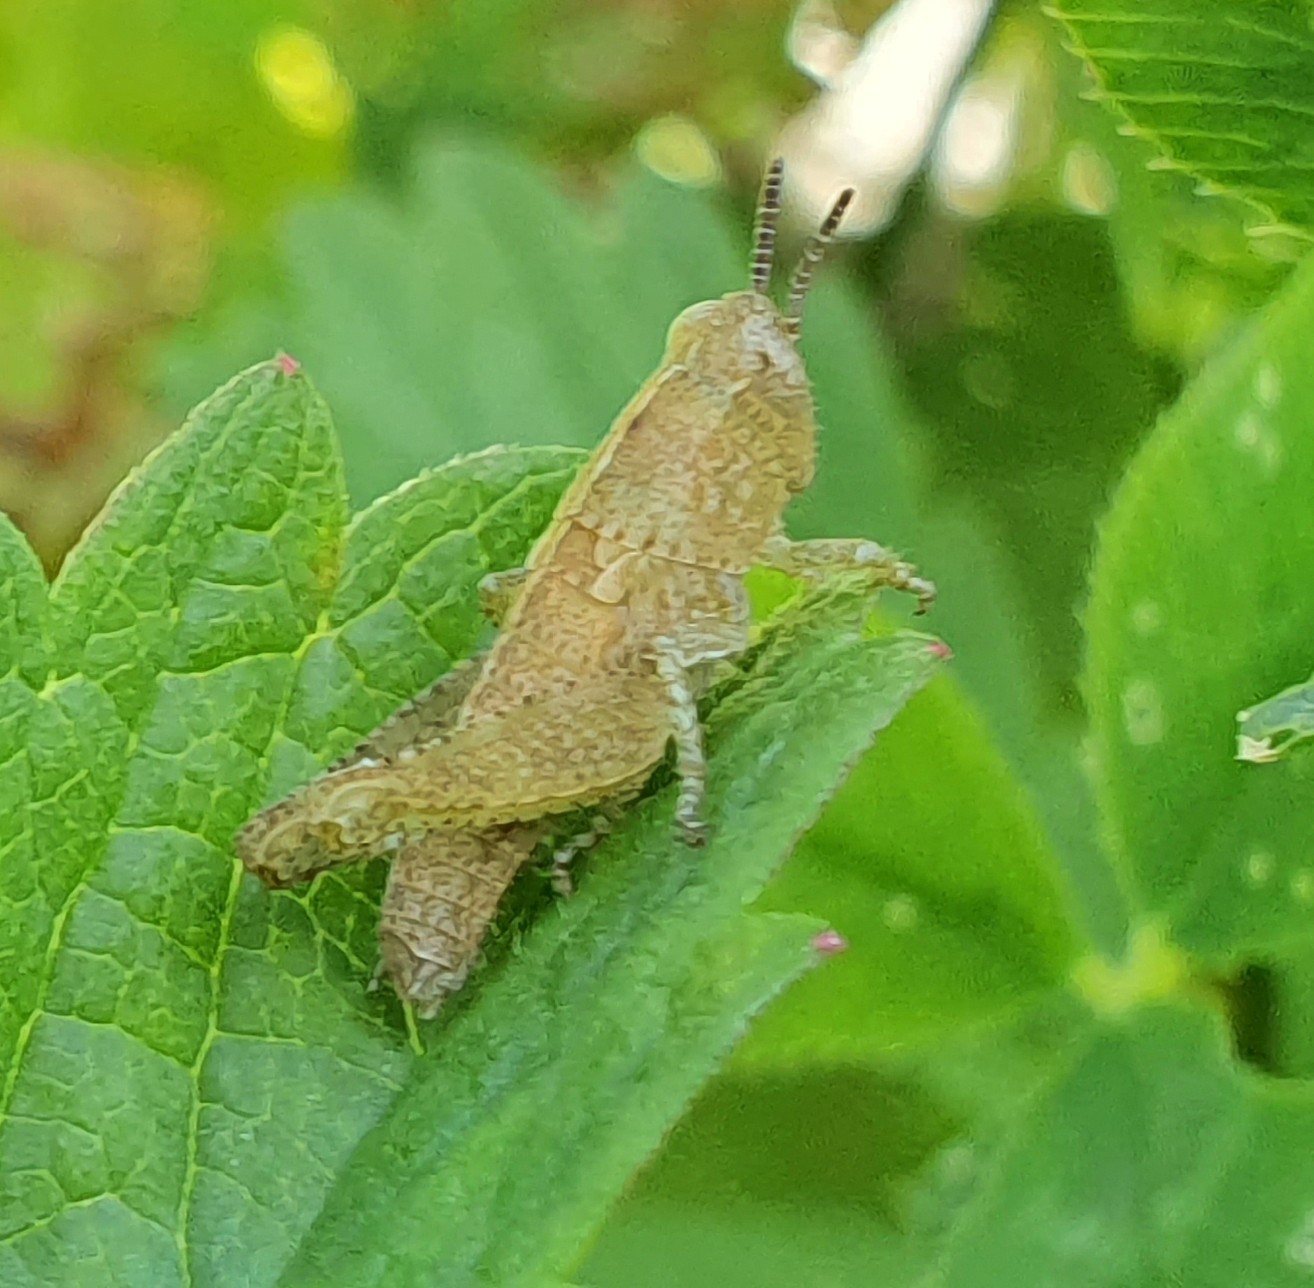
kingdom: Animalia
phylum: Arthropoda
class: Insecta
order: Orthoptera
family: Acrididae
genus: Pezotettix
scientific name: Pezotettix giornae
